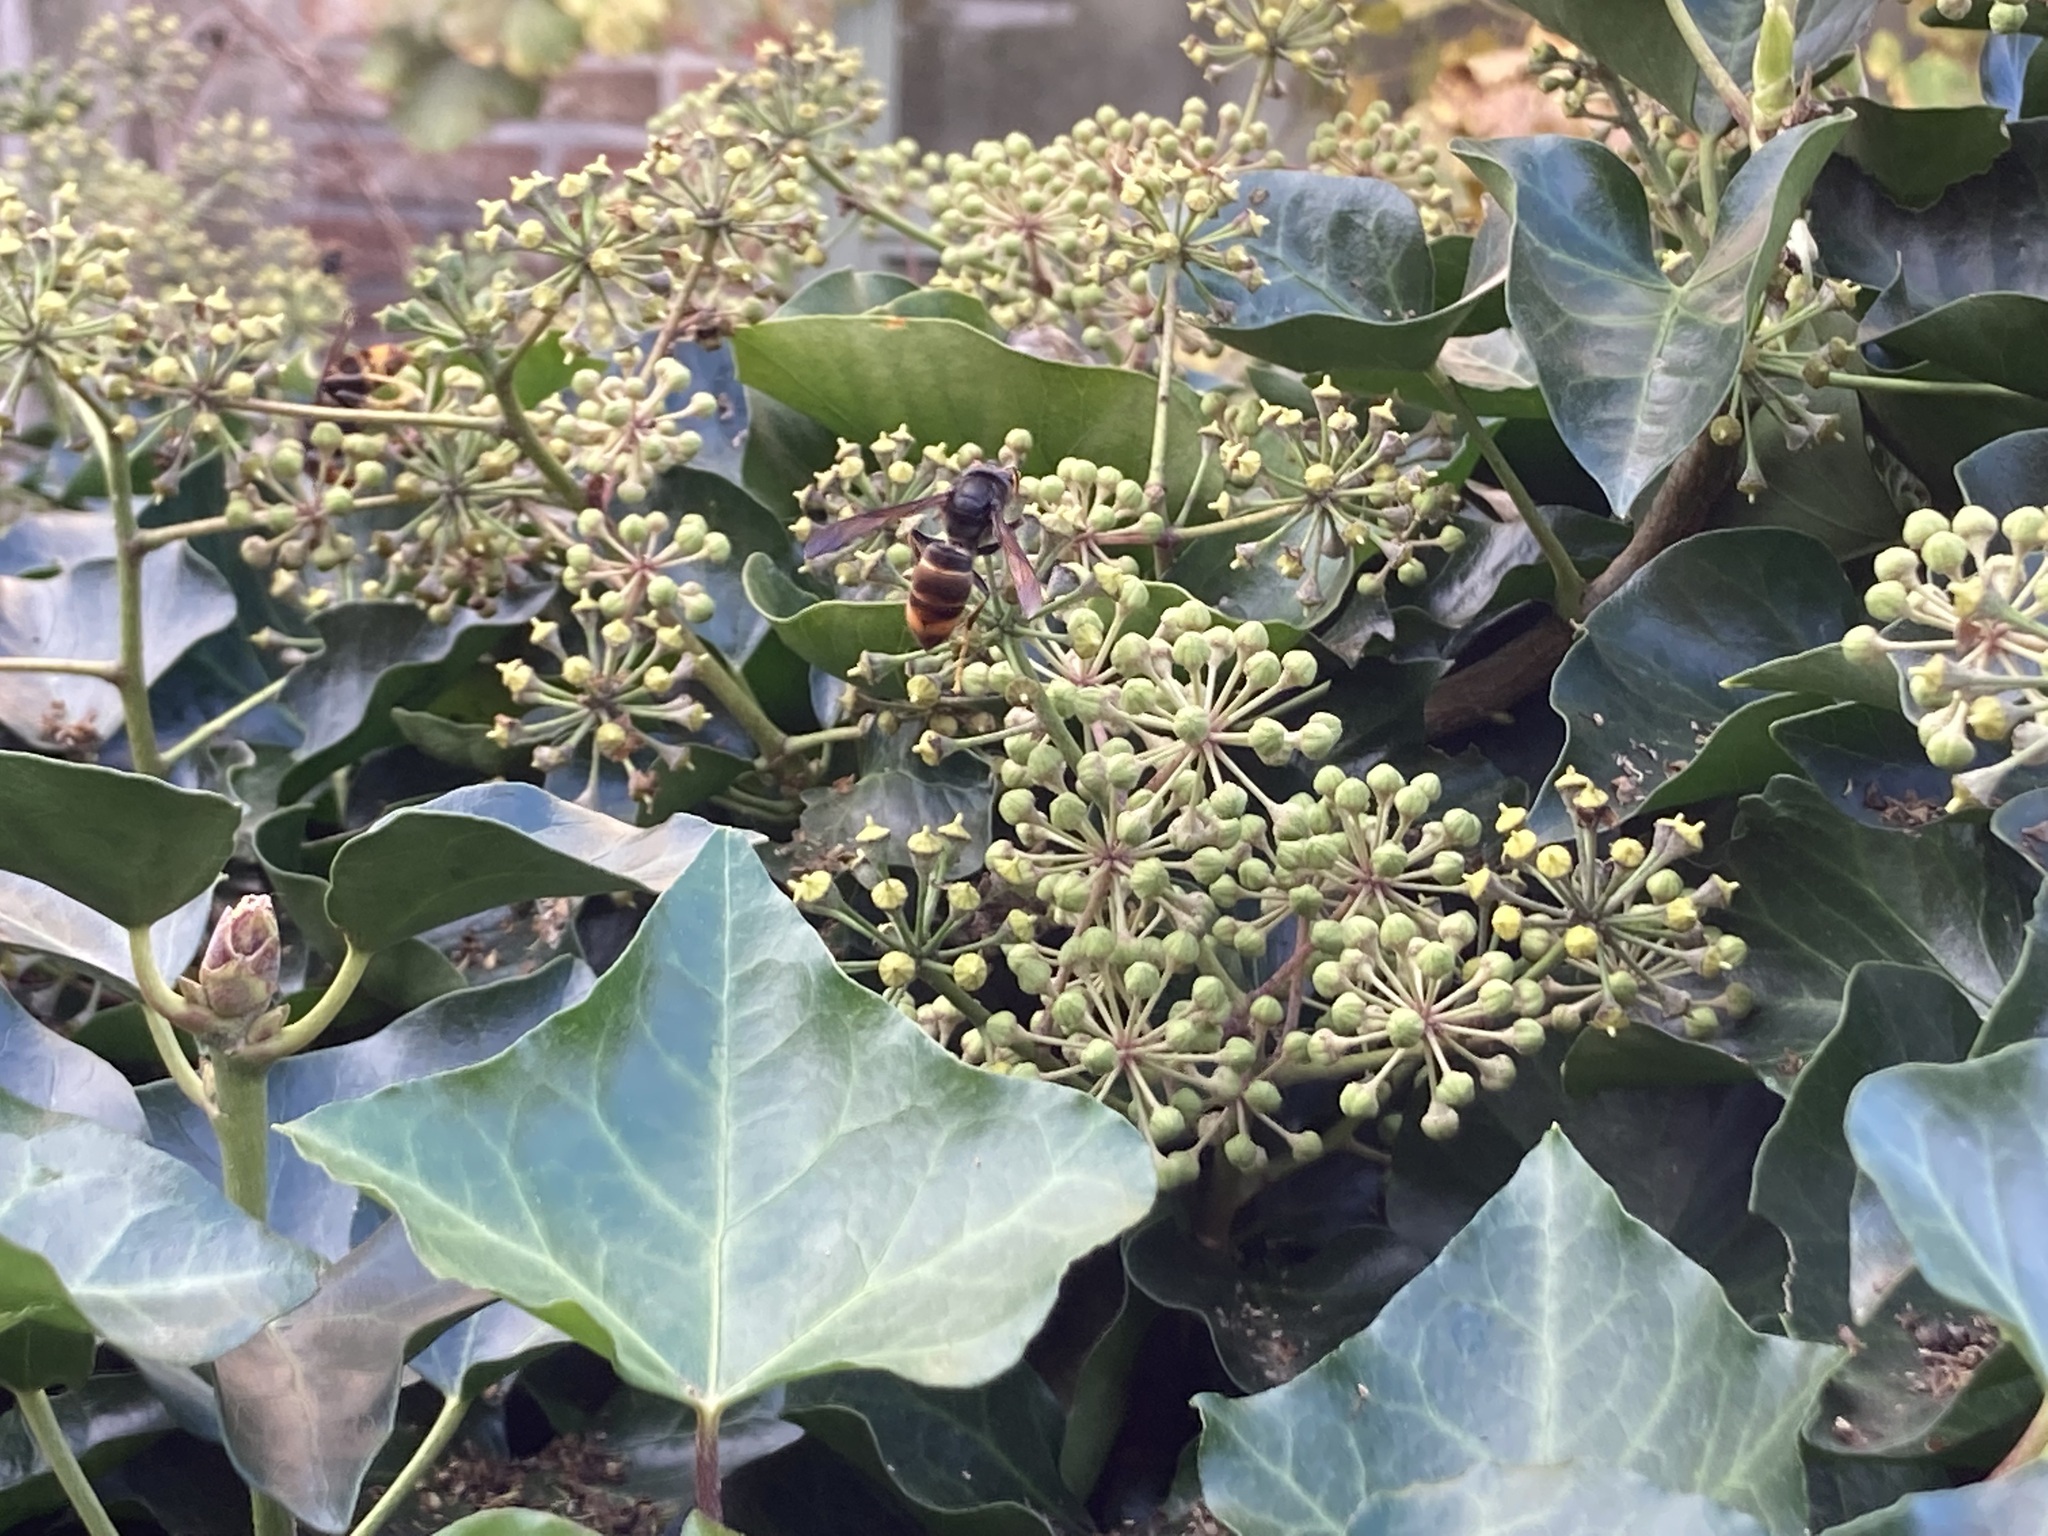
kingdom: Animalia
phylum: Arthropoda
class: Insecta
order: Hymenoptera
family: Vespidae
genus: Vespa
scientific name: Vespa velutina
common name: Asian hornet
